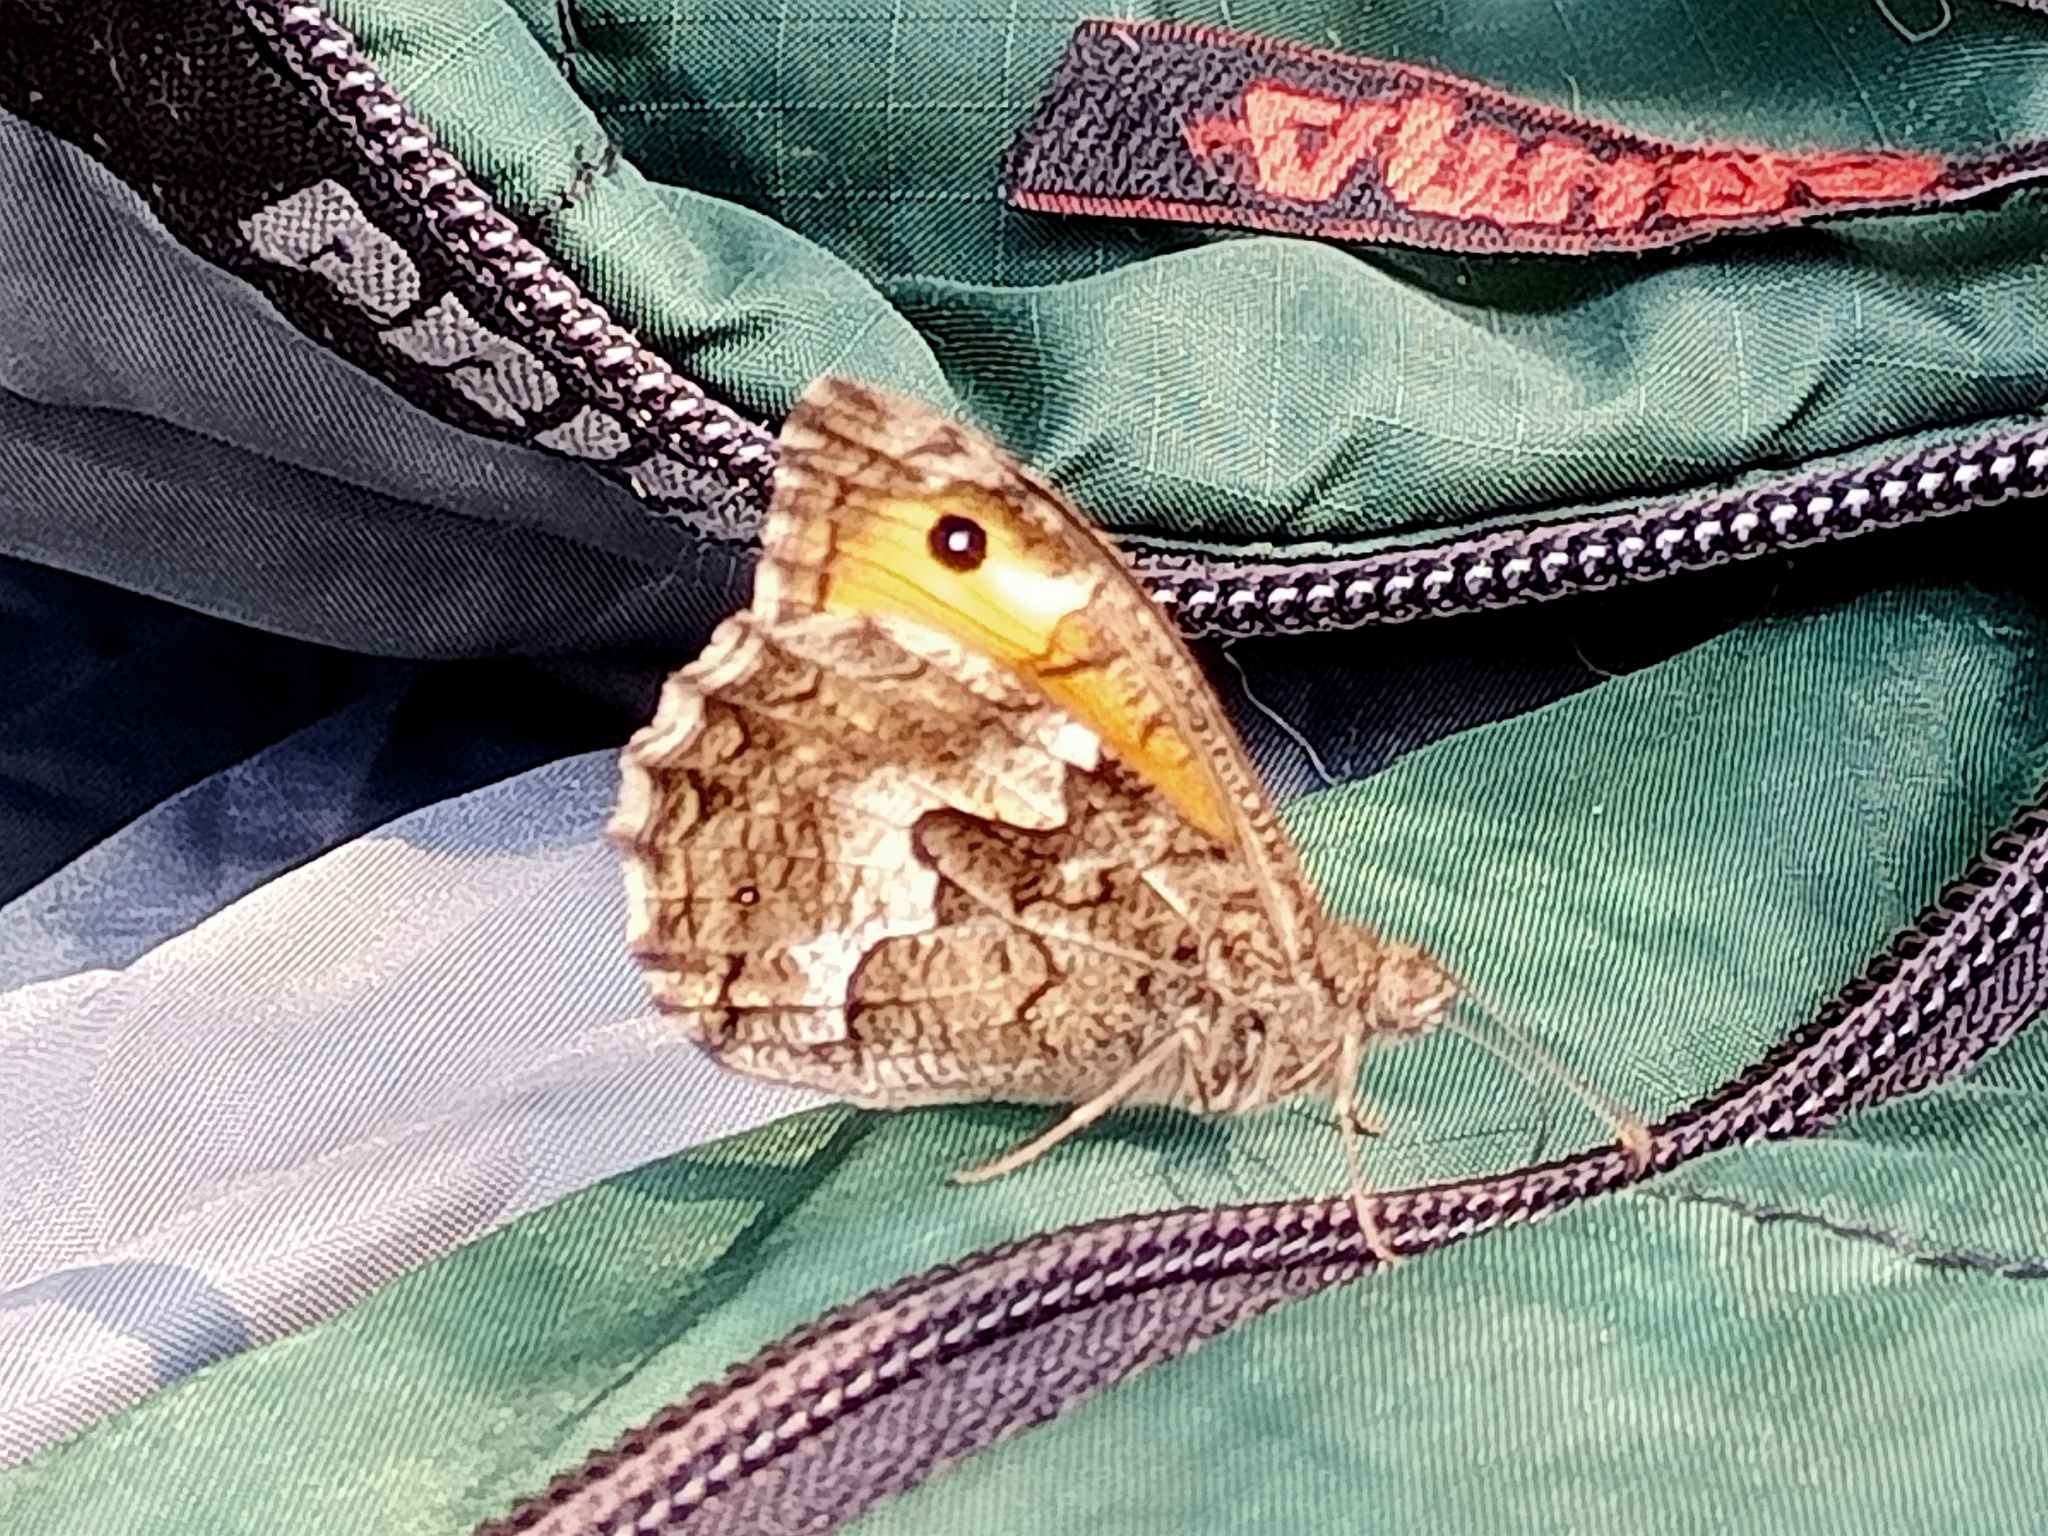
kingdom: Animalia
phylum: Arthropoda
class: Insecta
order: Lepidoptera
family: Nymphalidae
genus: Hipparchia
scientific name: Hipparchia semele
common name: Grayling
